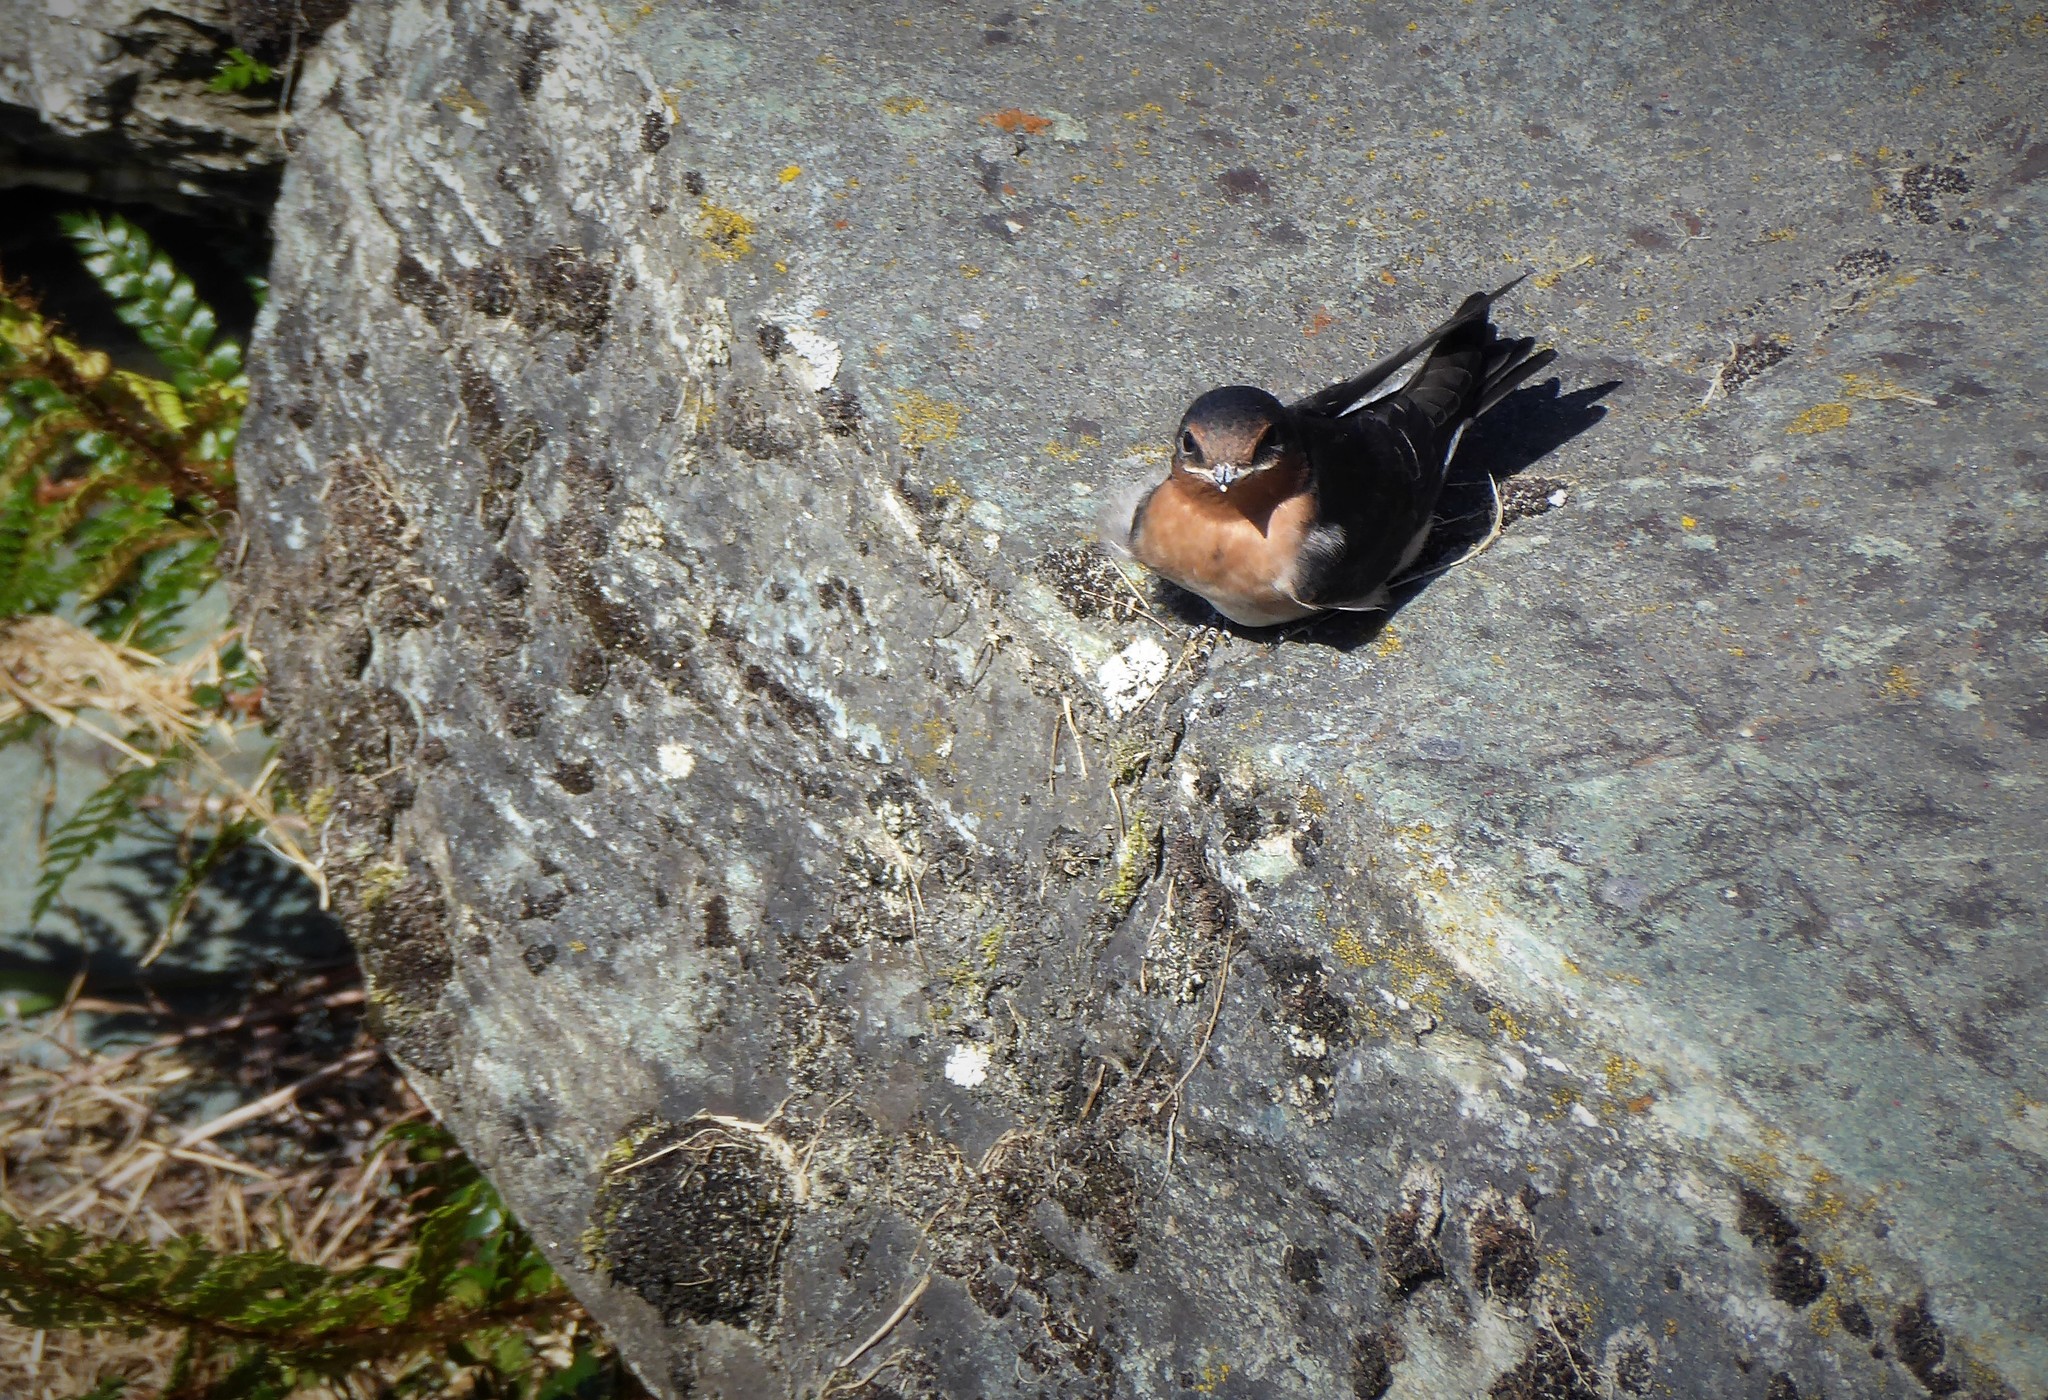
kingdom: Animalia
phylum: Chordata
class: Aves
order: Passeriformes
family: Hirundinidae
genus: Hirundo
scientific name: Hirundo neoxena
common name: Welcome swallow
